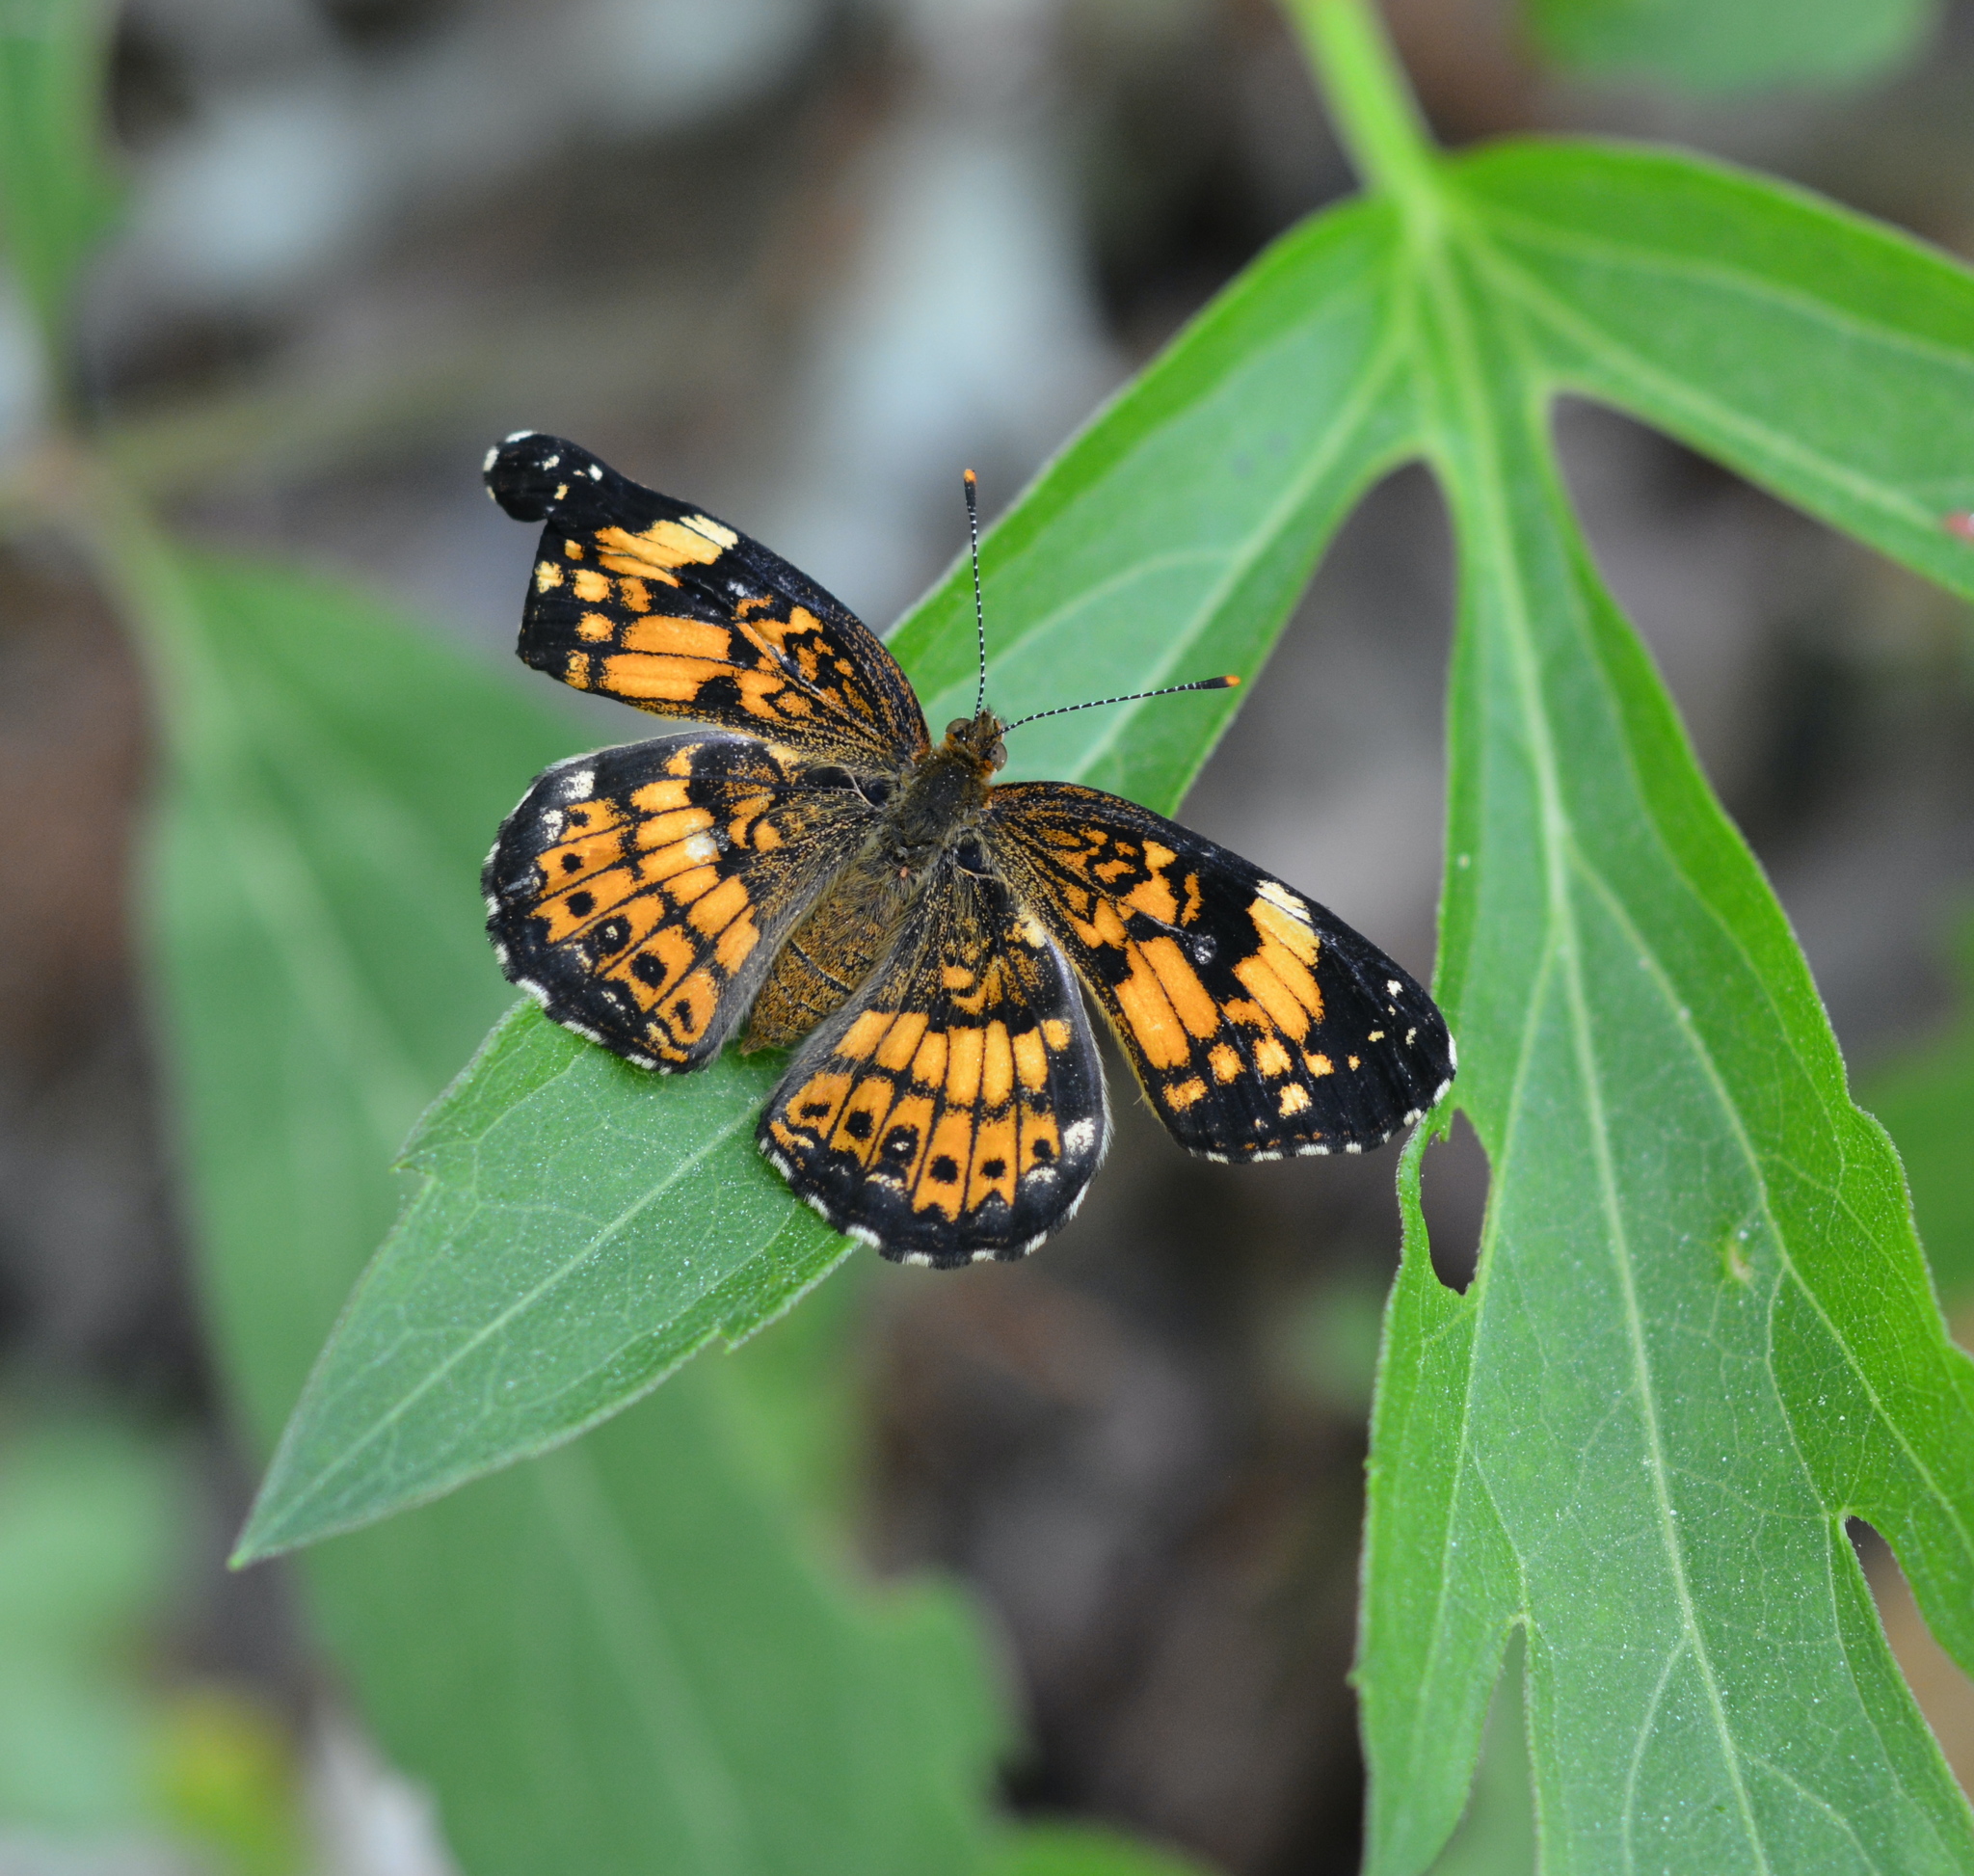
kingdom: Animalia
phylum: Arthropoda
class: Insecta
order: Lepidoptera
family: Nymphalidae
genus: Chlosyne
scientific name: Chlosyne nycteis
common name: Silvery checkerspot
